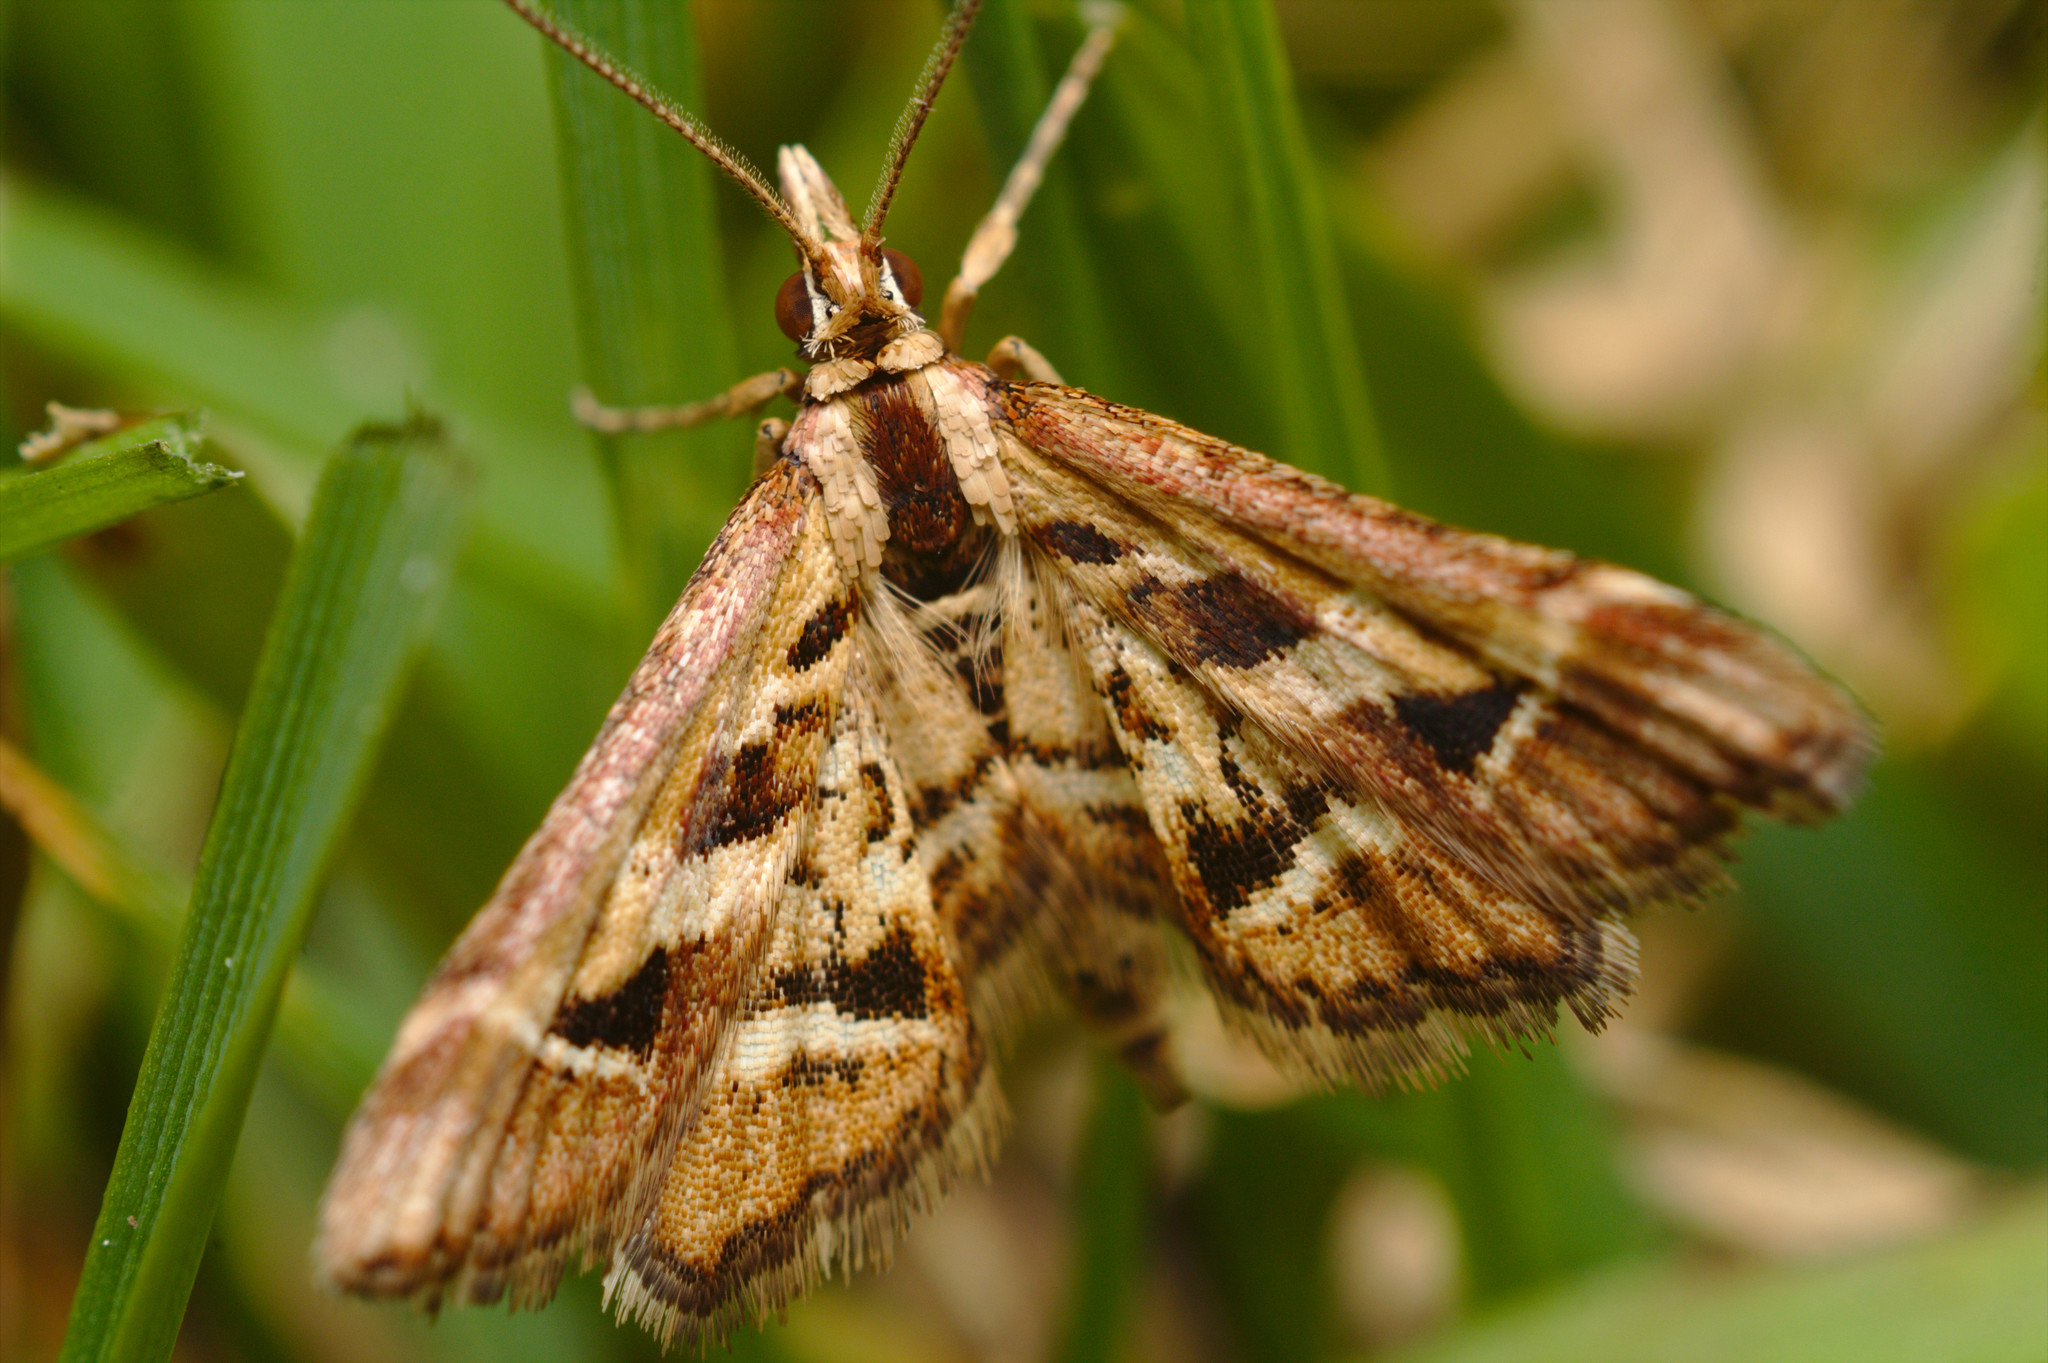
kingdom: Animalia
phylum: Arthropoda
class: Insecta
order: Lepidoptera
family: Crambidae
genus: Diasemia
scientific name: Diasemia grammalis
